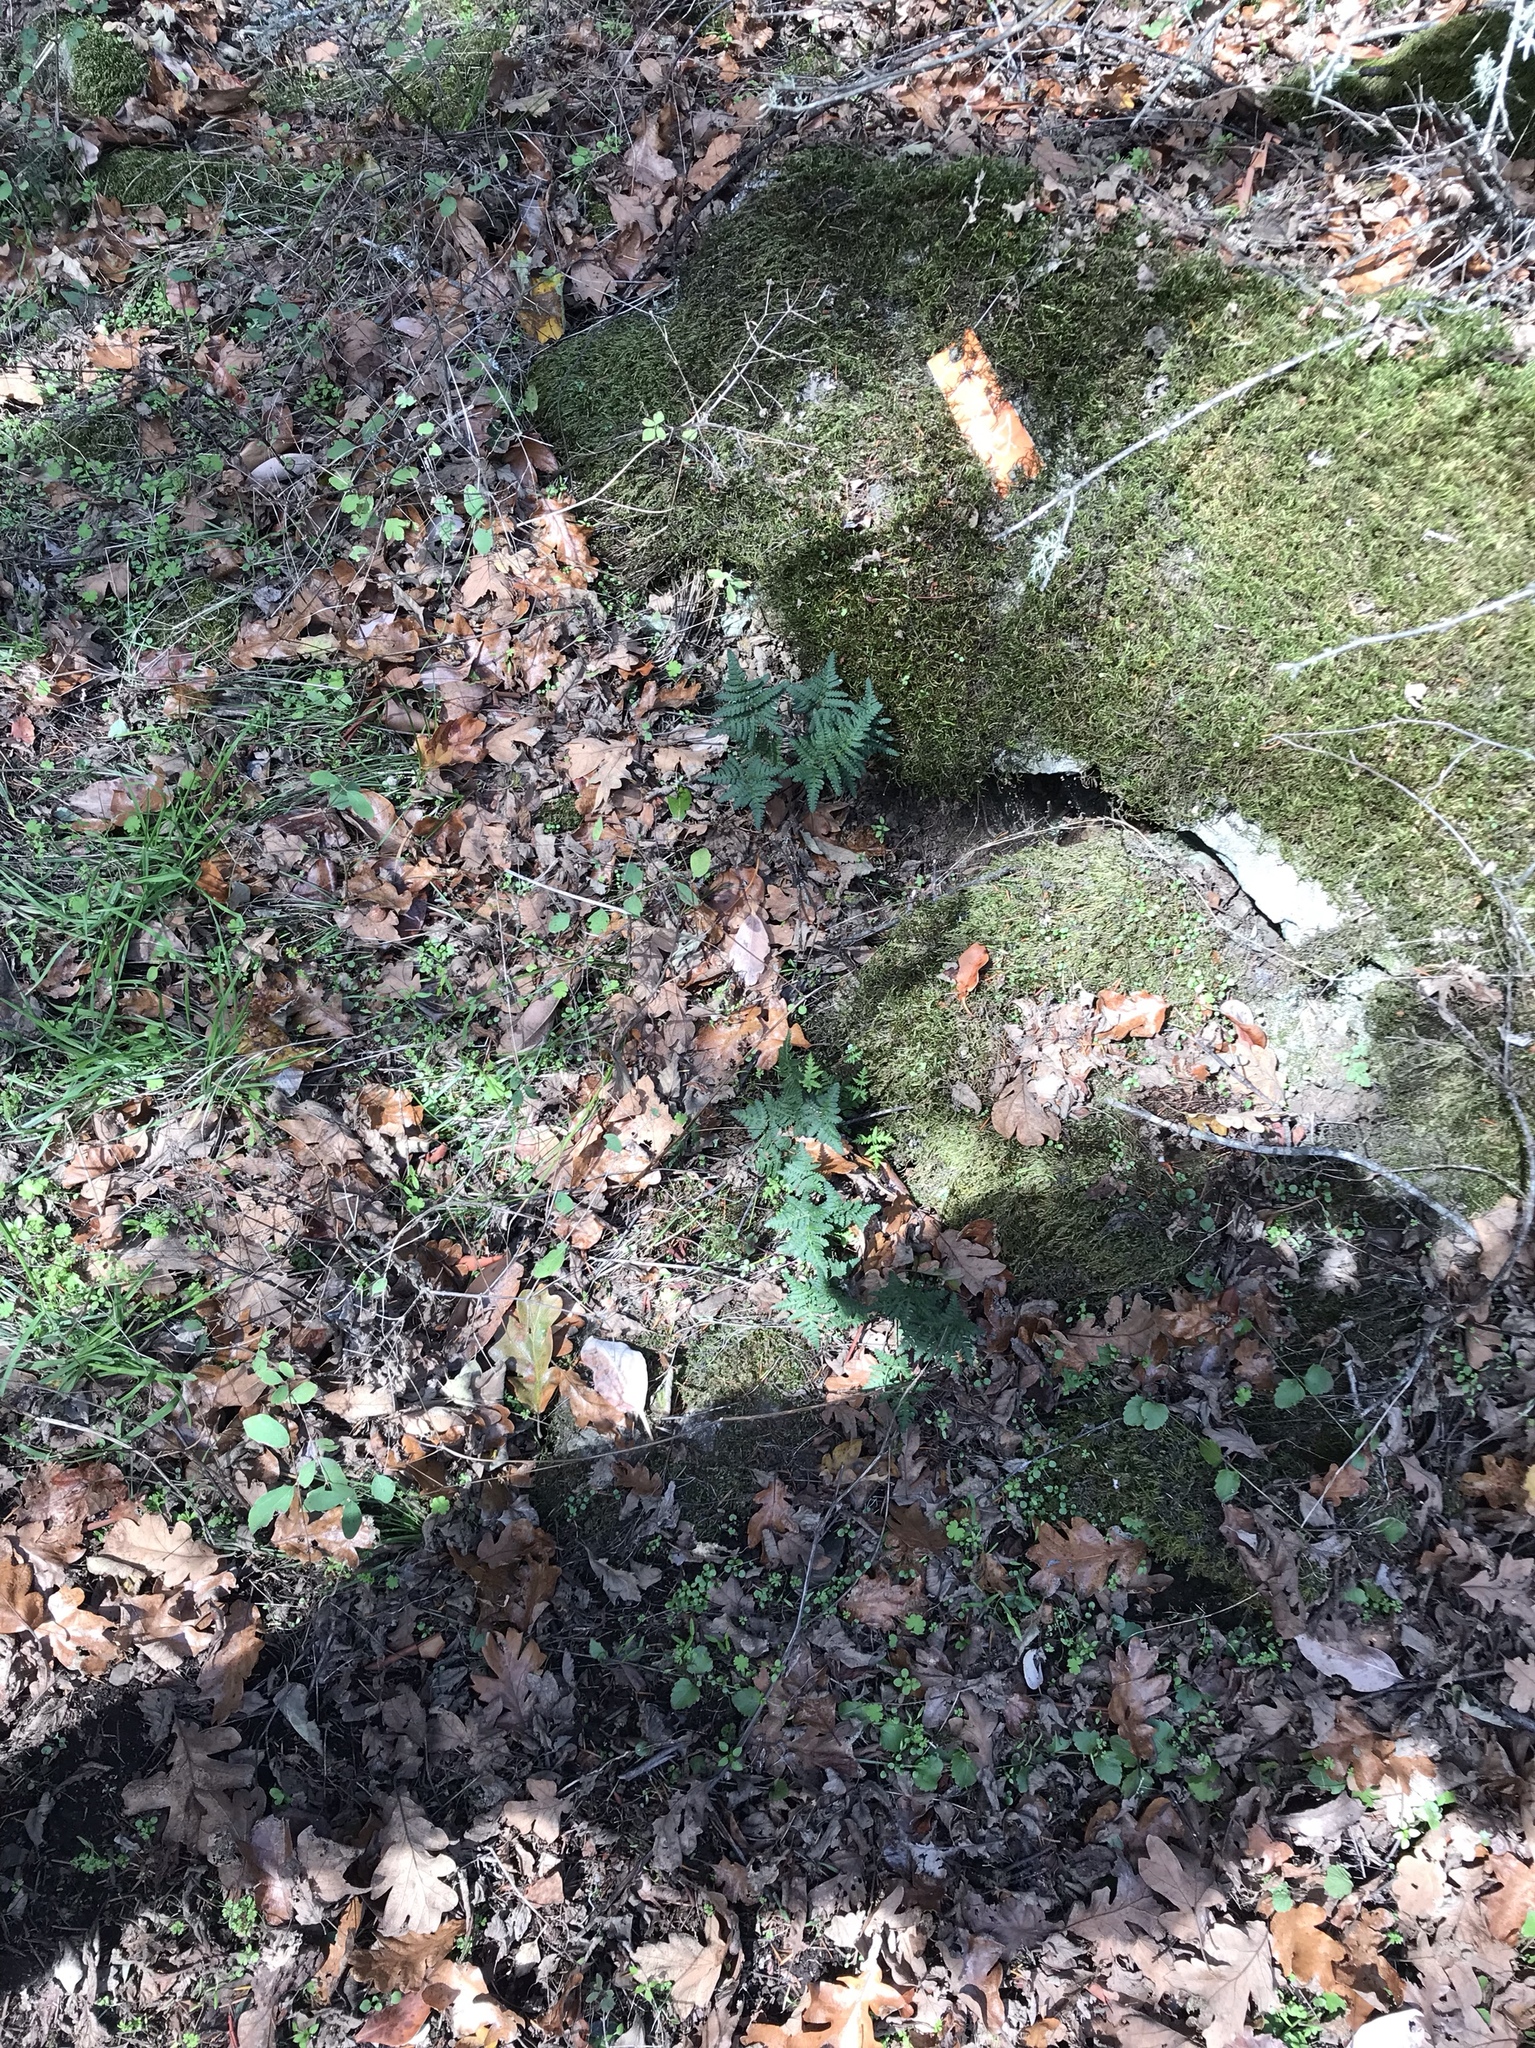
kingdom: Plantae
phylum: Tracheophyta
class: Polypodiopsida
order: Polypodiales
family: Pteridaceae
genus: Pentagramma
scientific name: Pentagramma triangularis
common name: Gold fern
